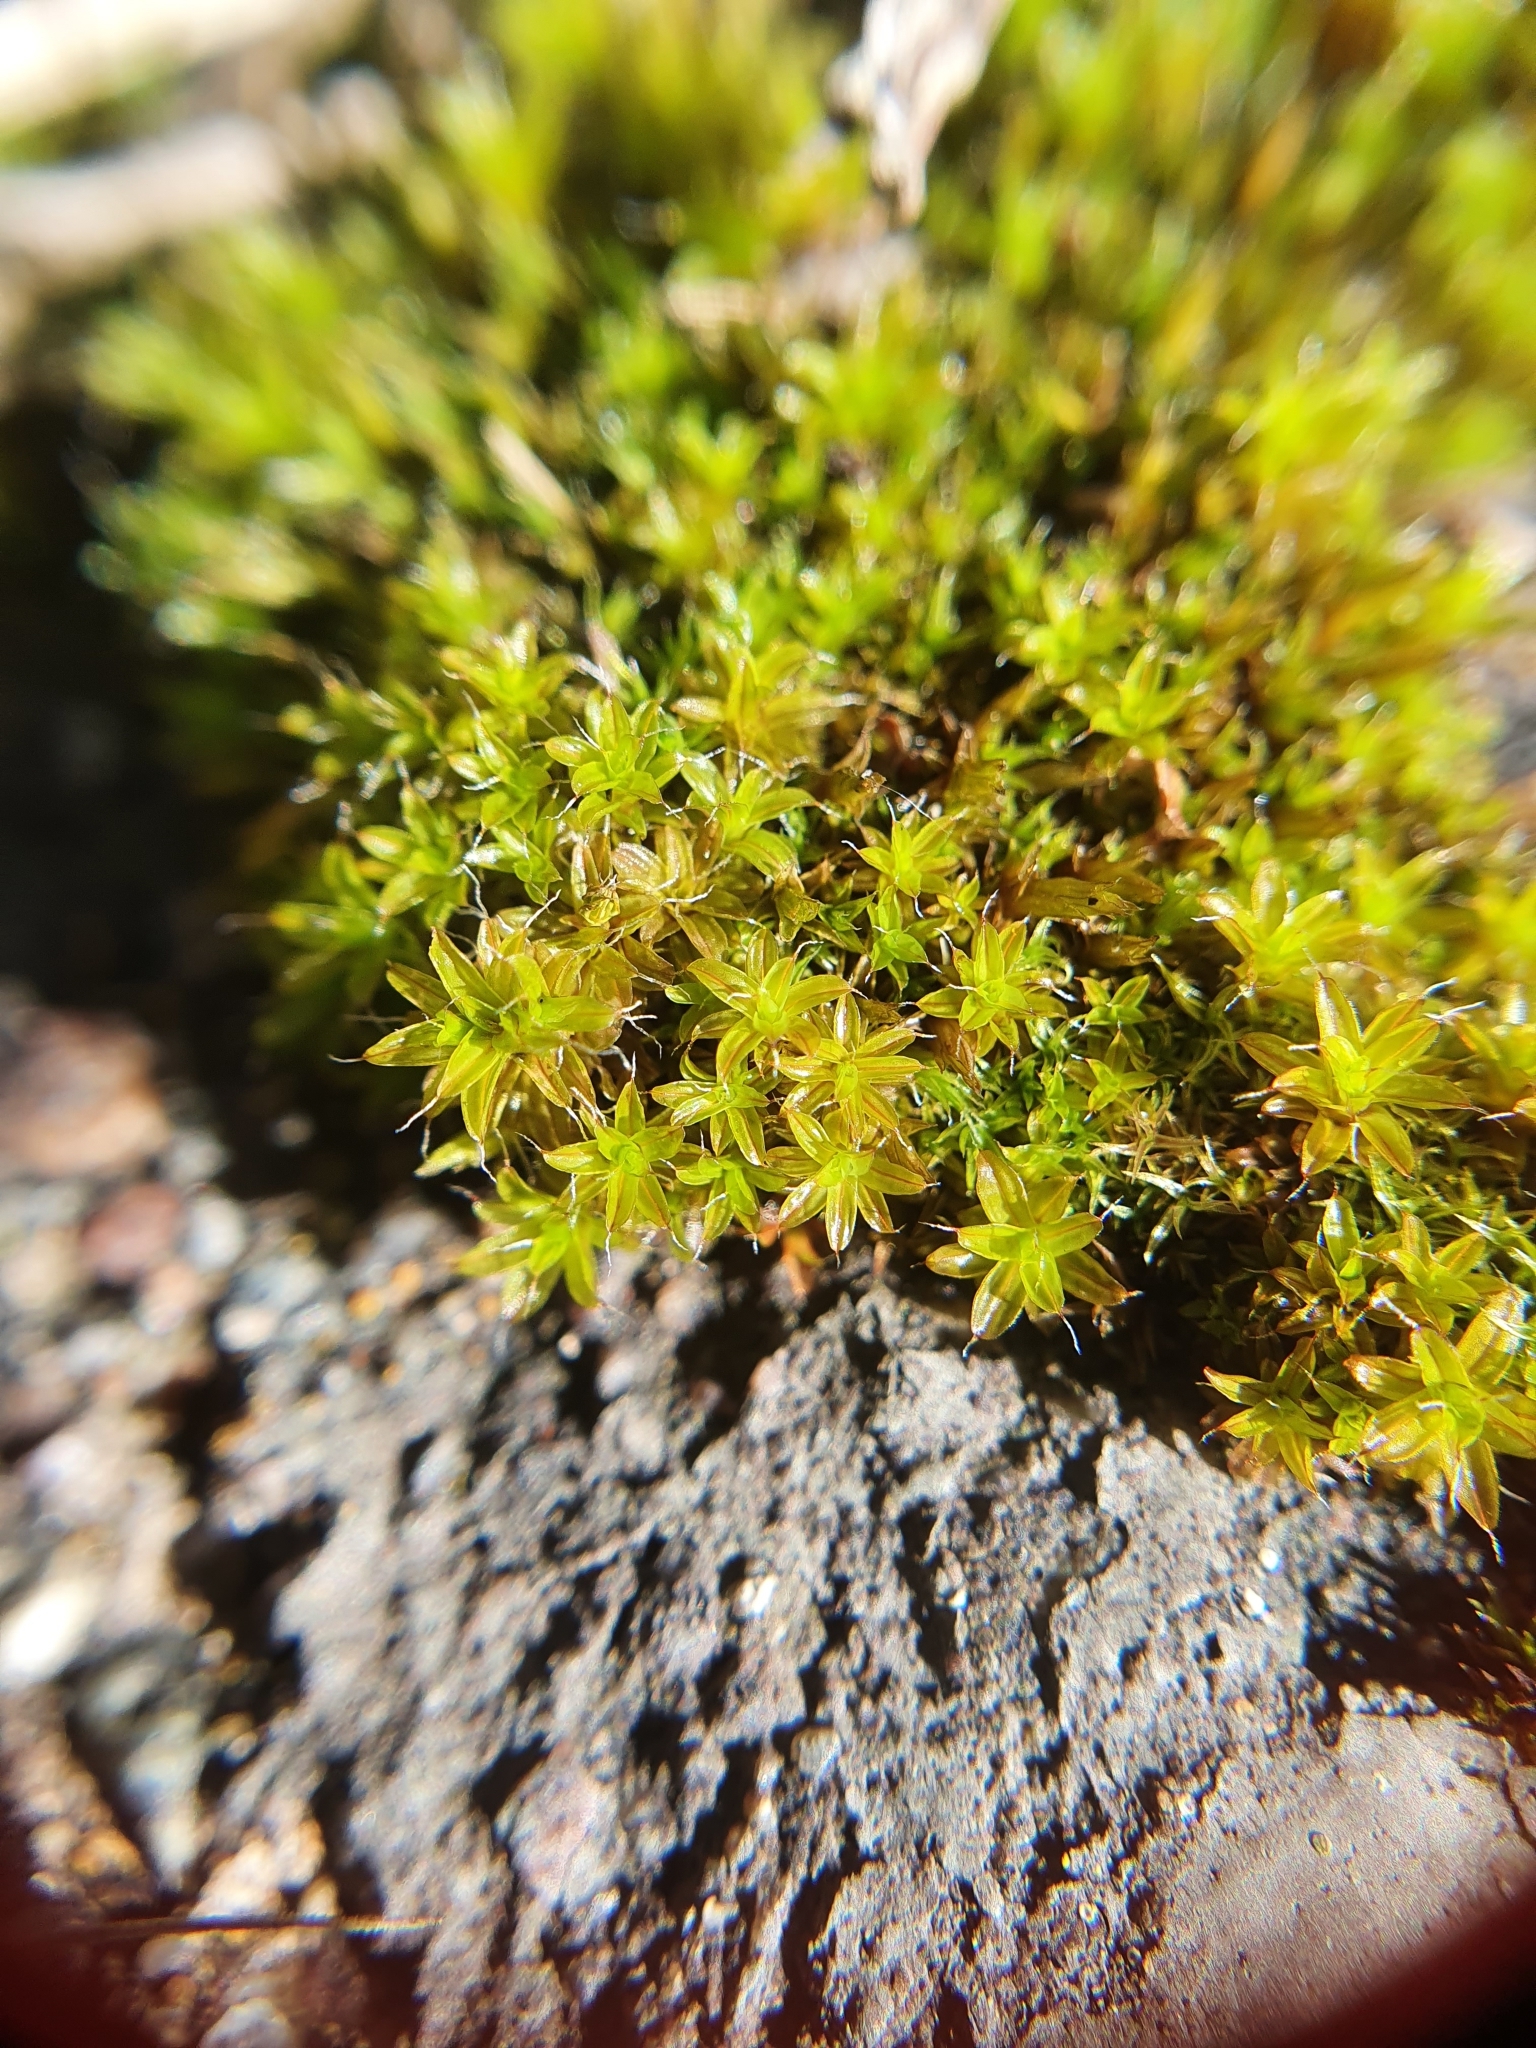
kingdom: Plantae
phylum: Bryophyta
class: Bryopsida
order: Pottiales
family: Pottiaceae
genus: Syntrichia
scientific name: Syntrichia ruralis
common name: Sidewalk screw moss
